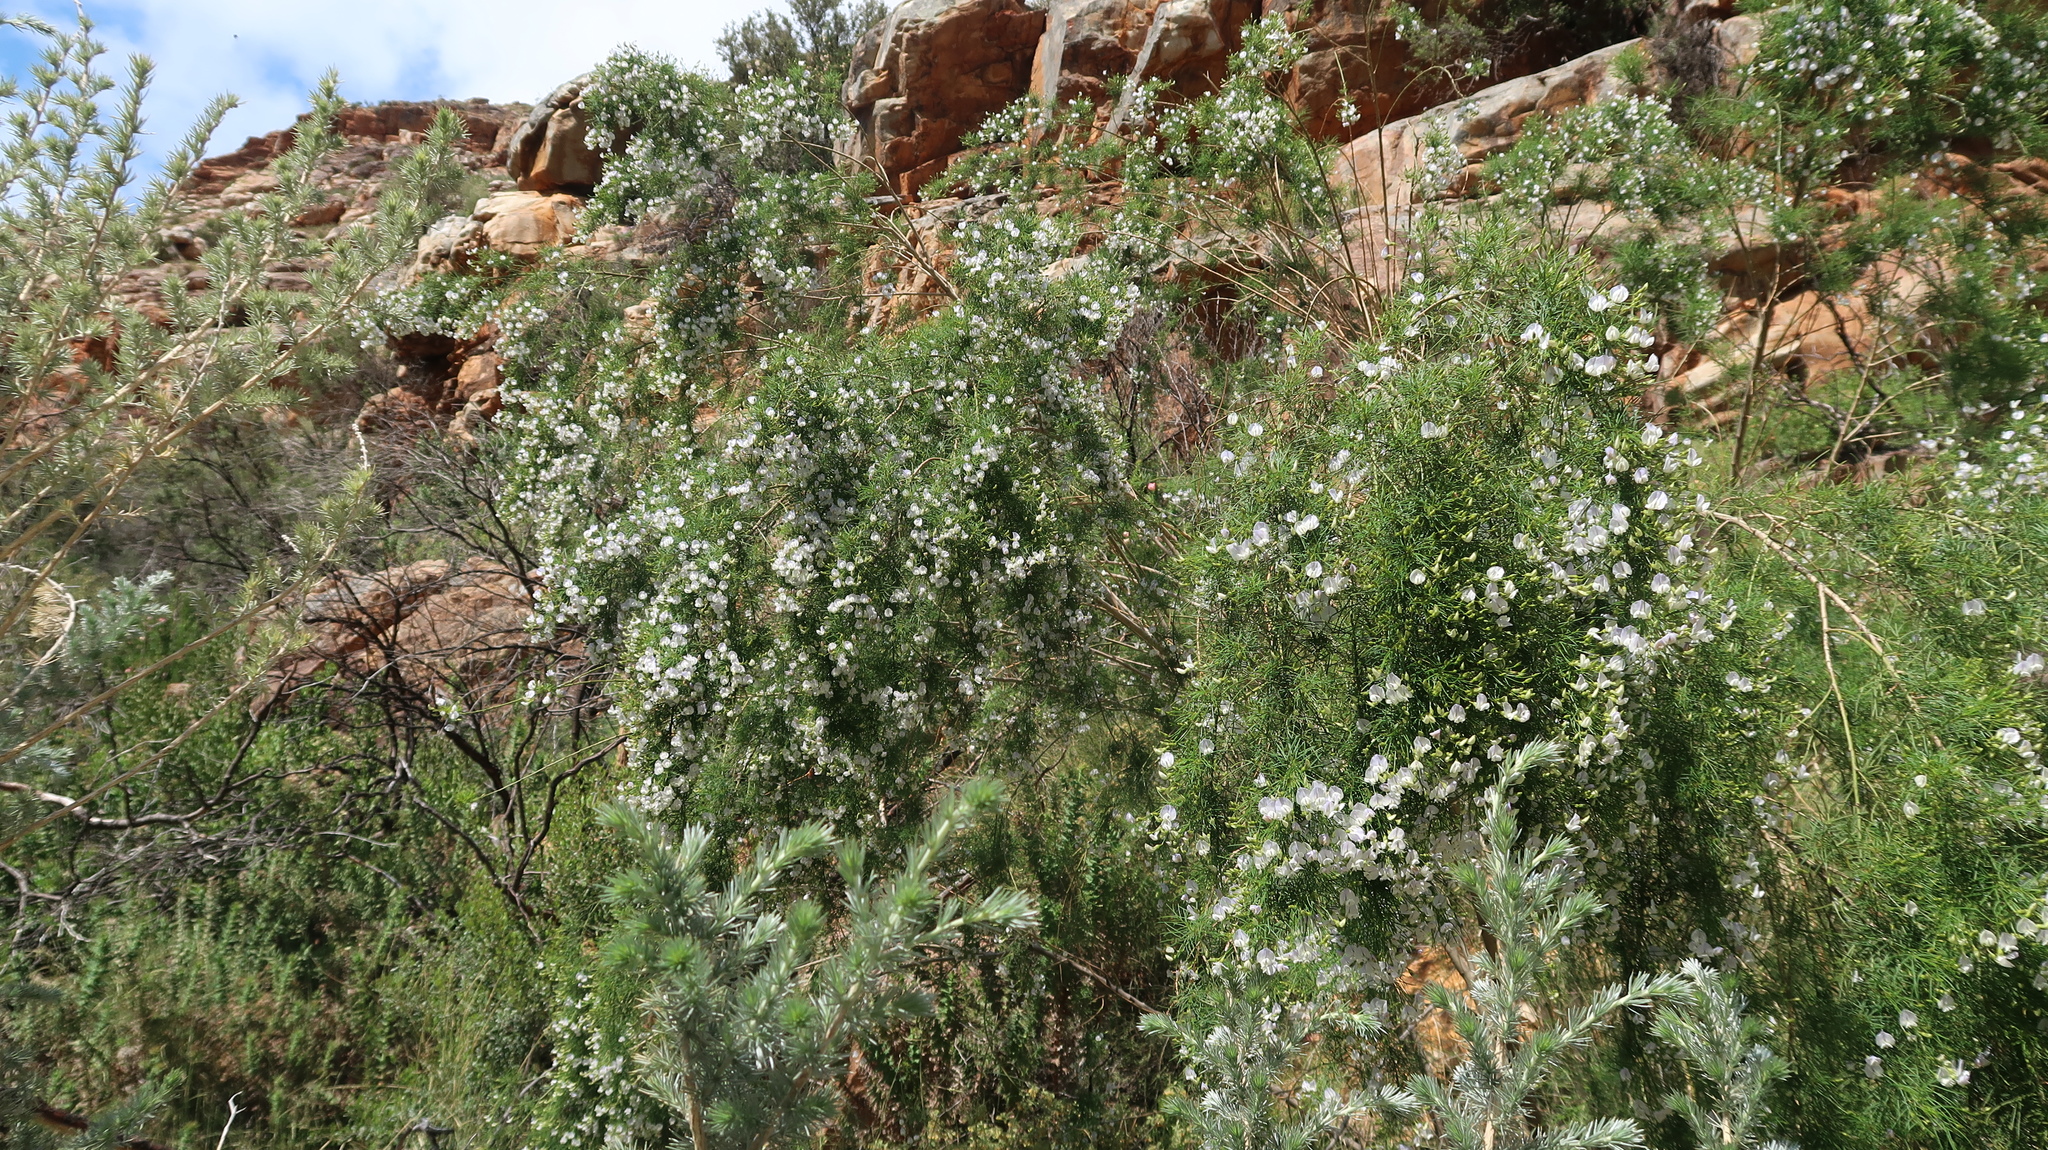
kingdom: Plantae
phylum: Tracheophyta
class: Magnoliopsida
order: Fabales
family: Fabaceae
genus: Psoralea
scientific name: Psoralea elegans
